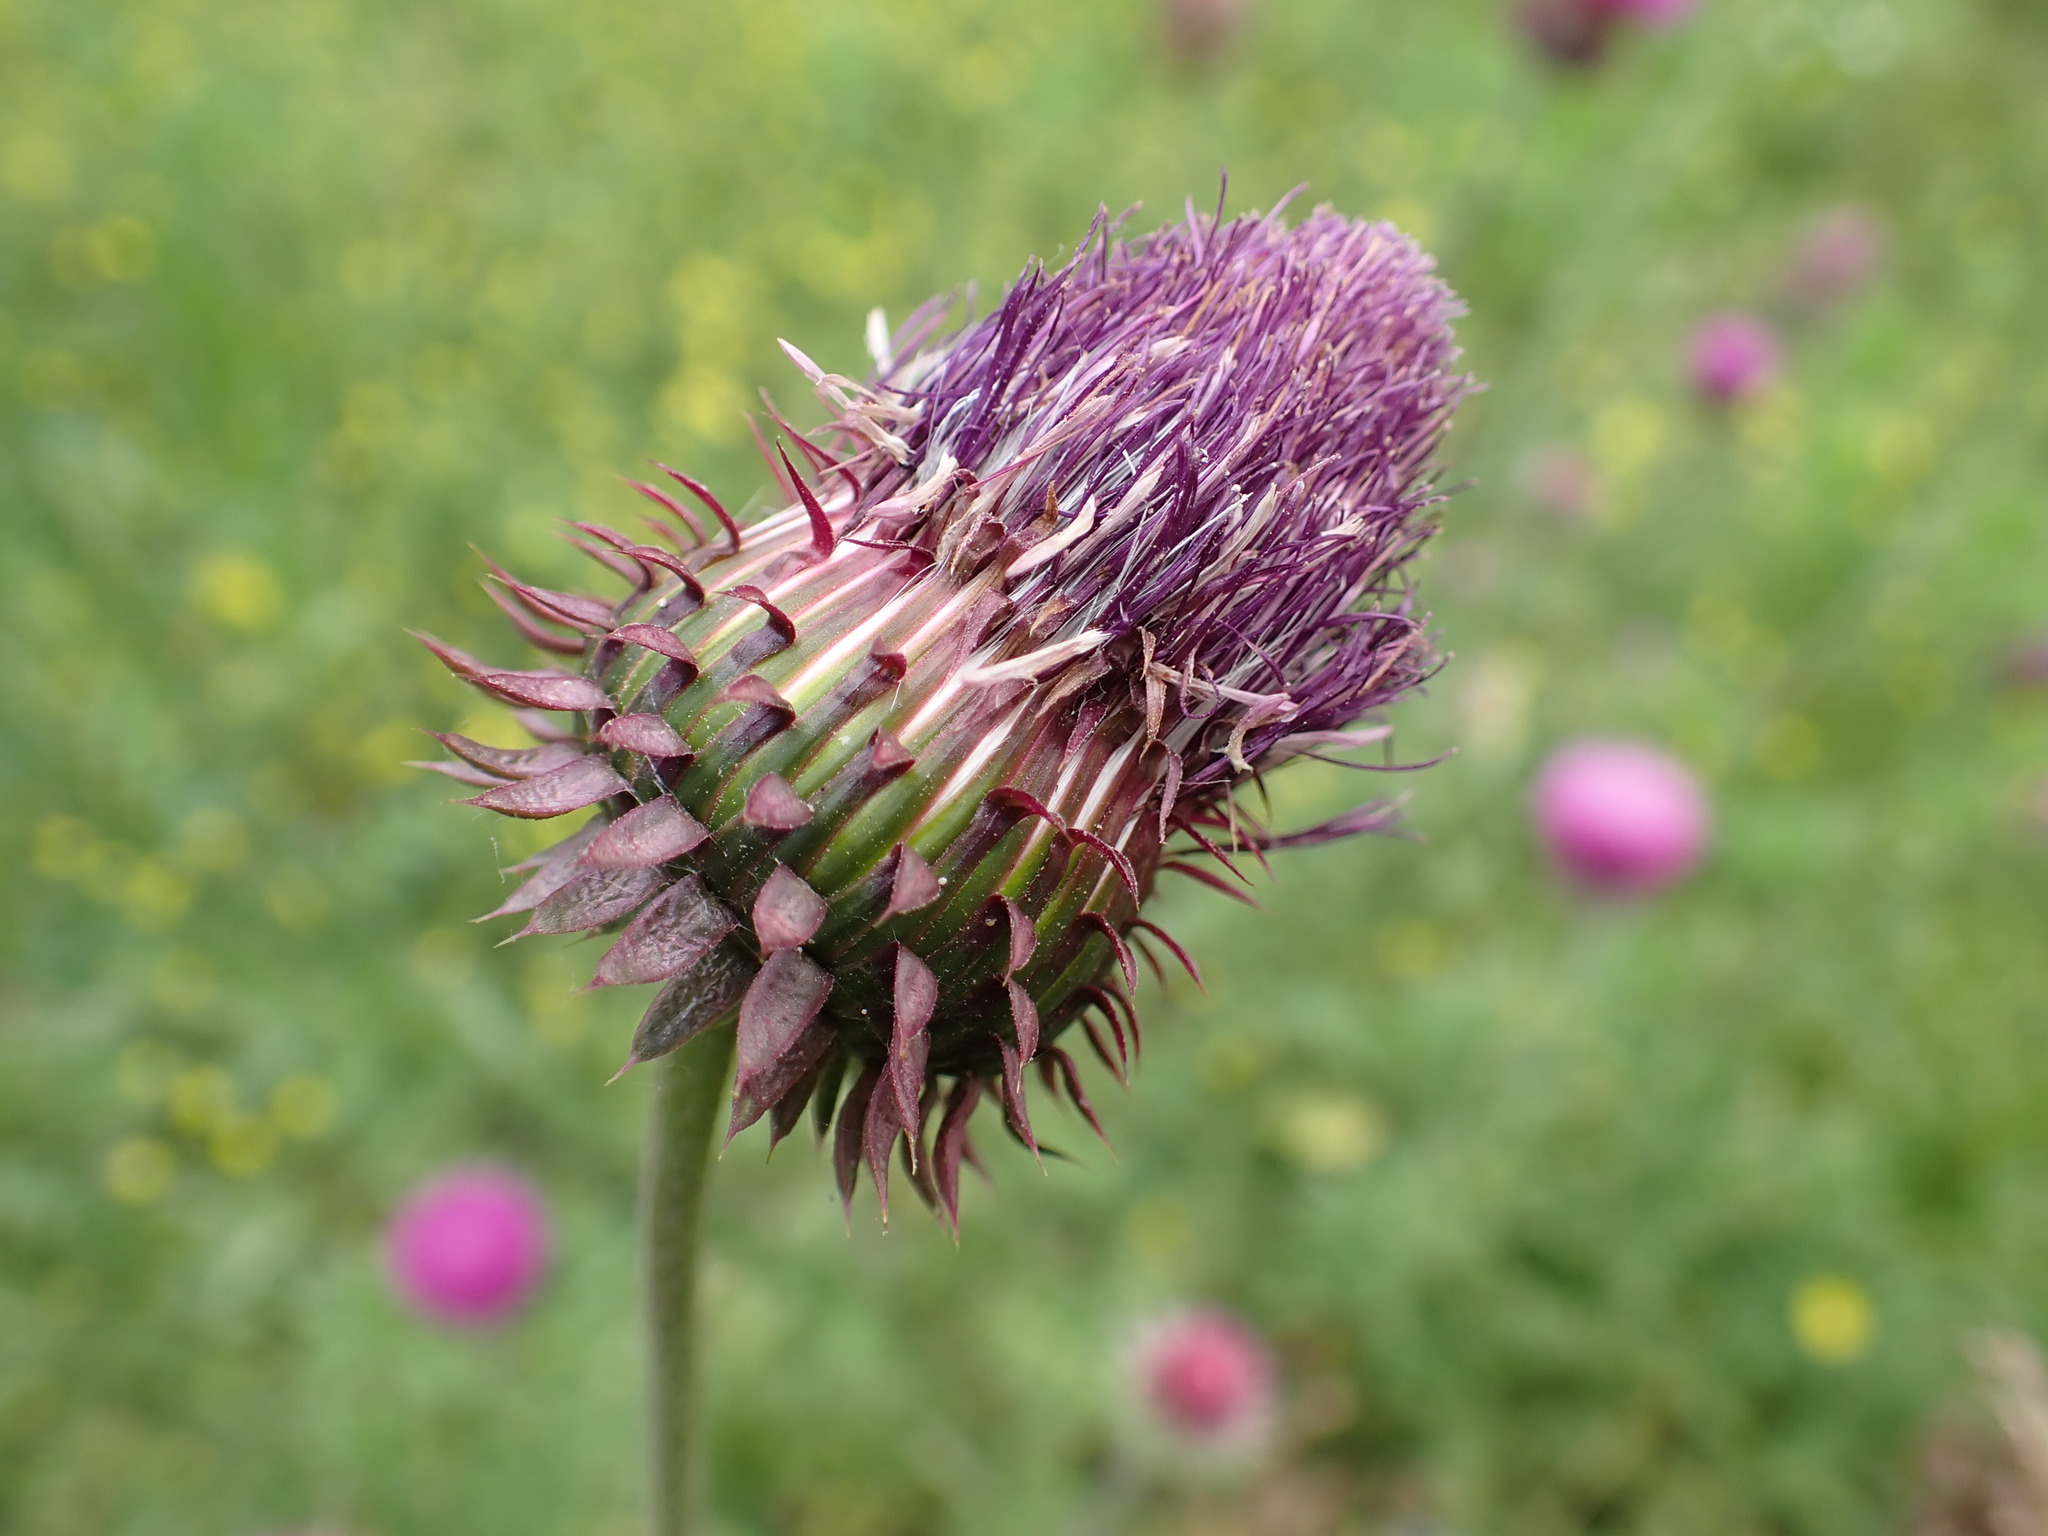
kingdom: Plantae
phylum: Tracheophyta
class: Magnoliopsida
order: Asterales
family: Asteraceae
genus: Carduus
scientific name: Carduus nutans
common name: Musk thistle
